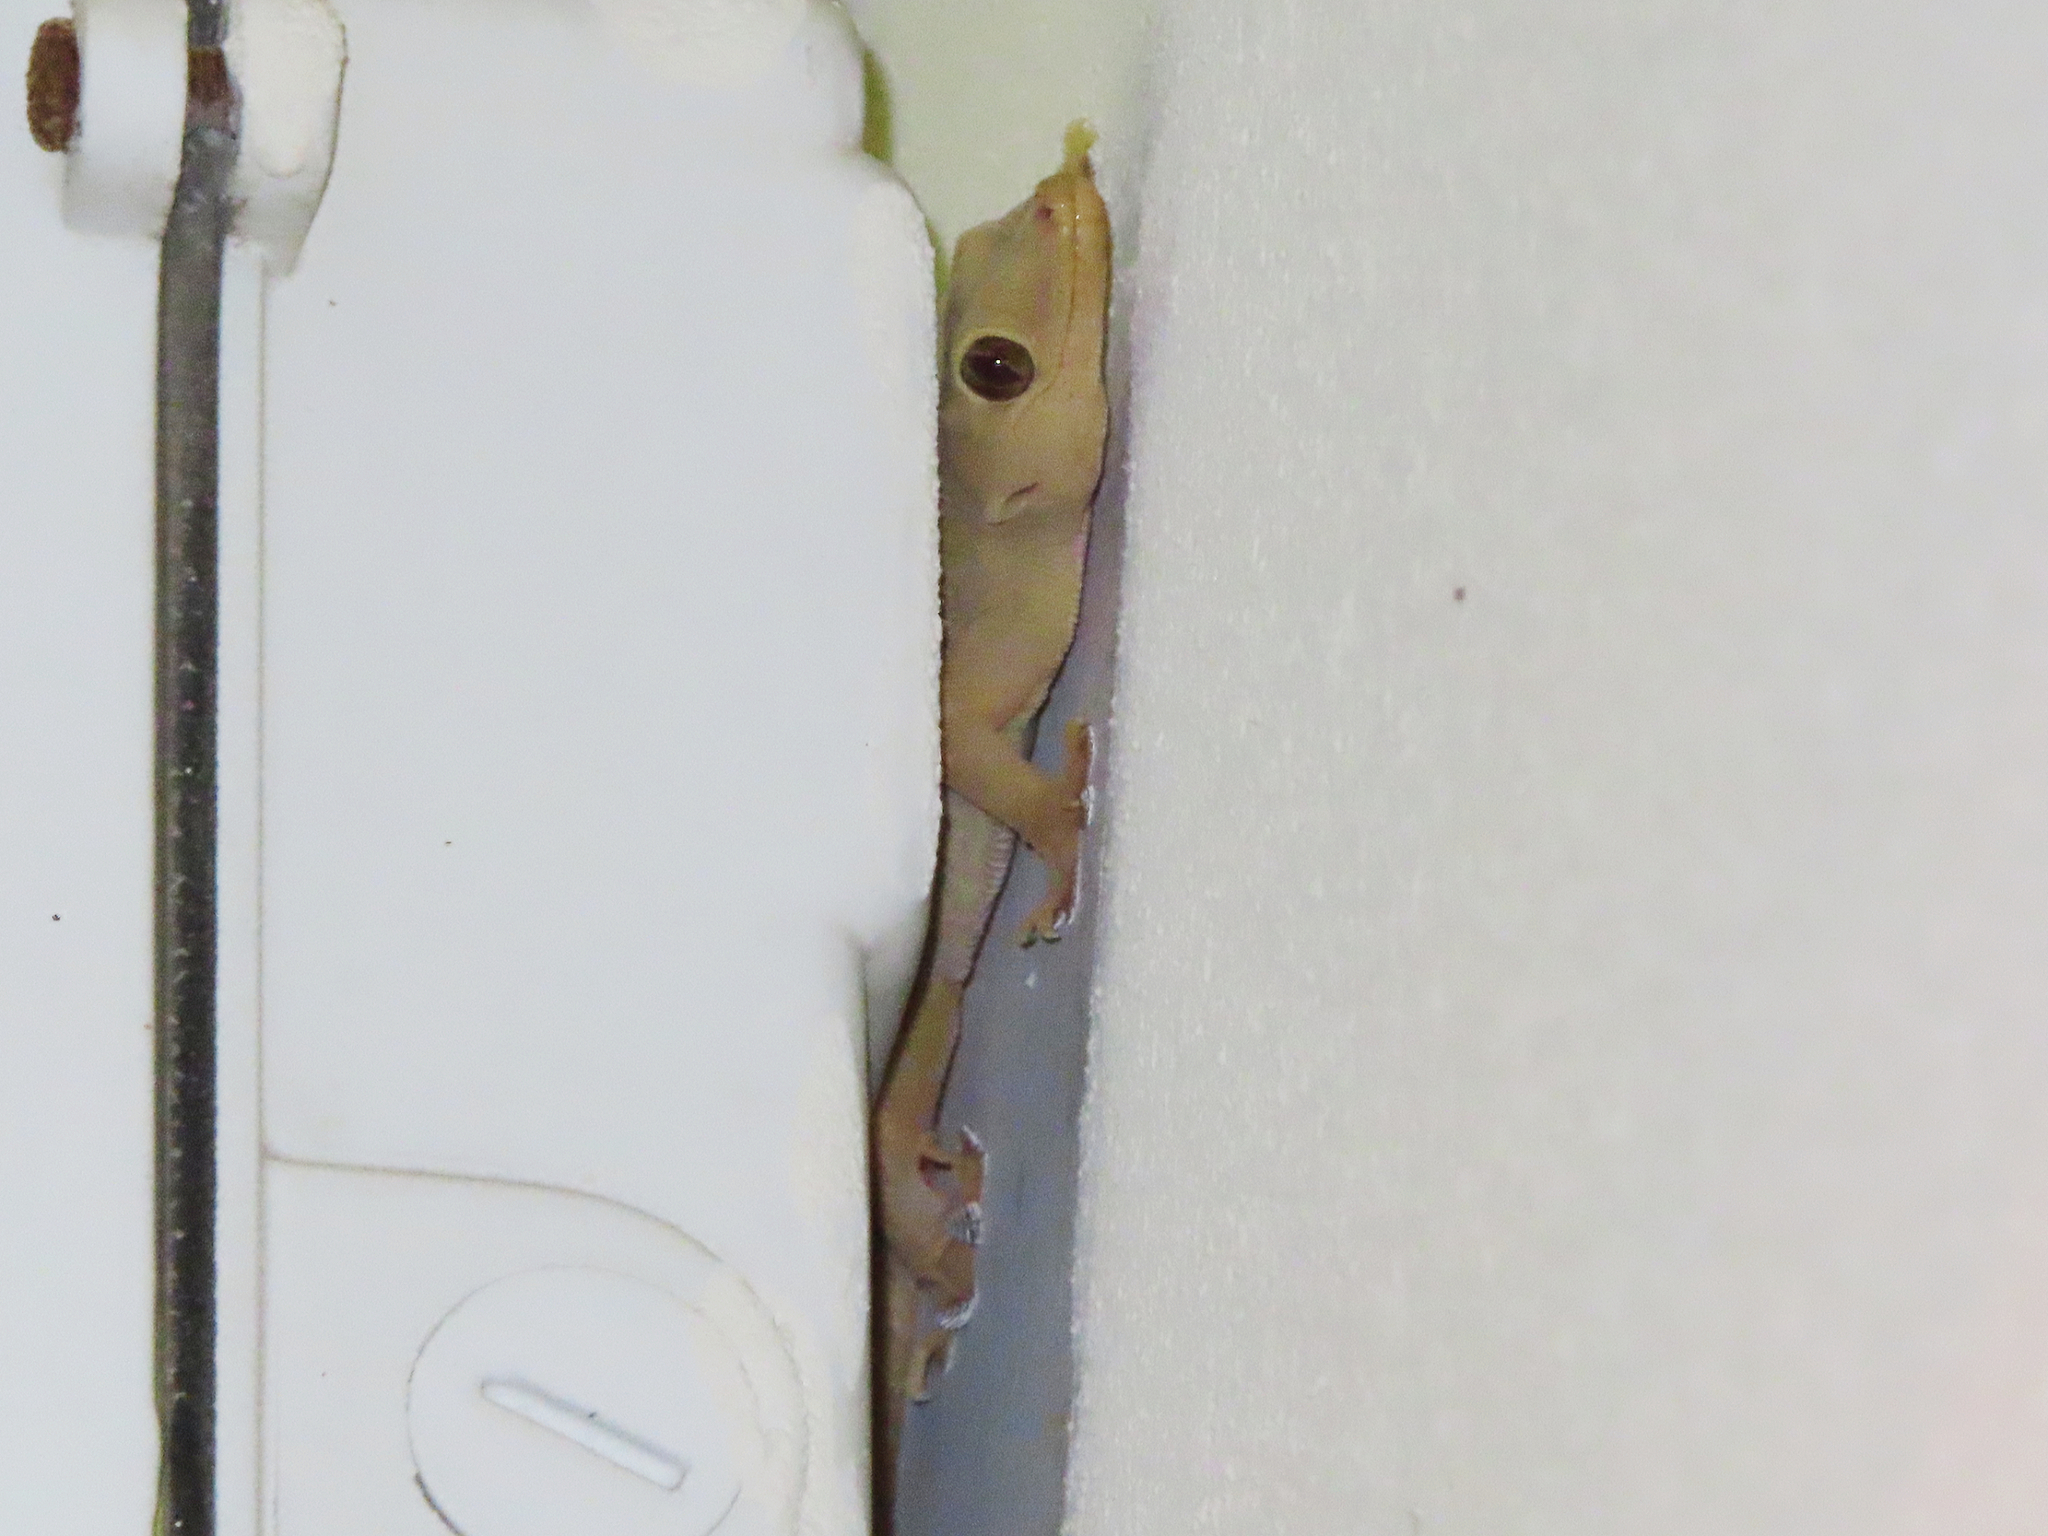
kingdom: Animalia
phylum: Chordata
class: Squamata
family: Gekkonidae
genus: Hemidactylus
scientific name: Hemidactylus flaviviridis
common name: Northern house gecko
